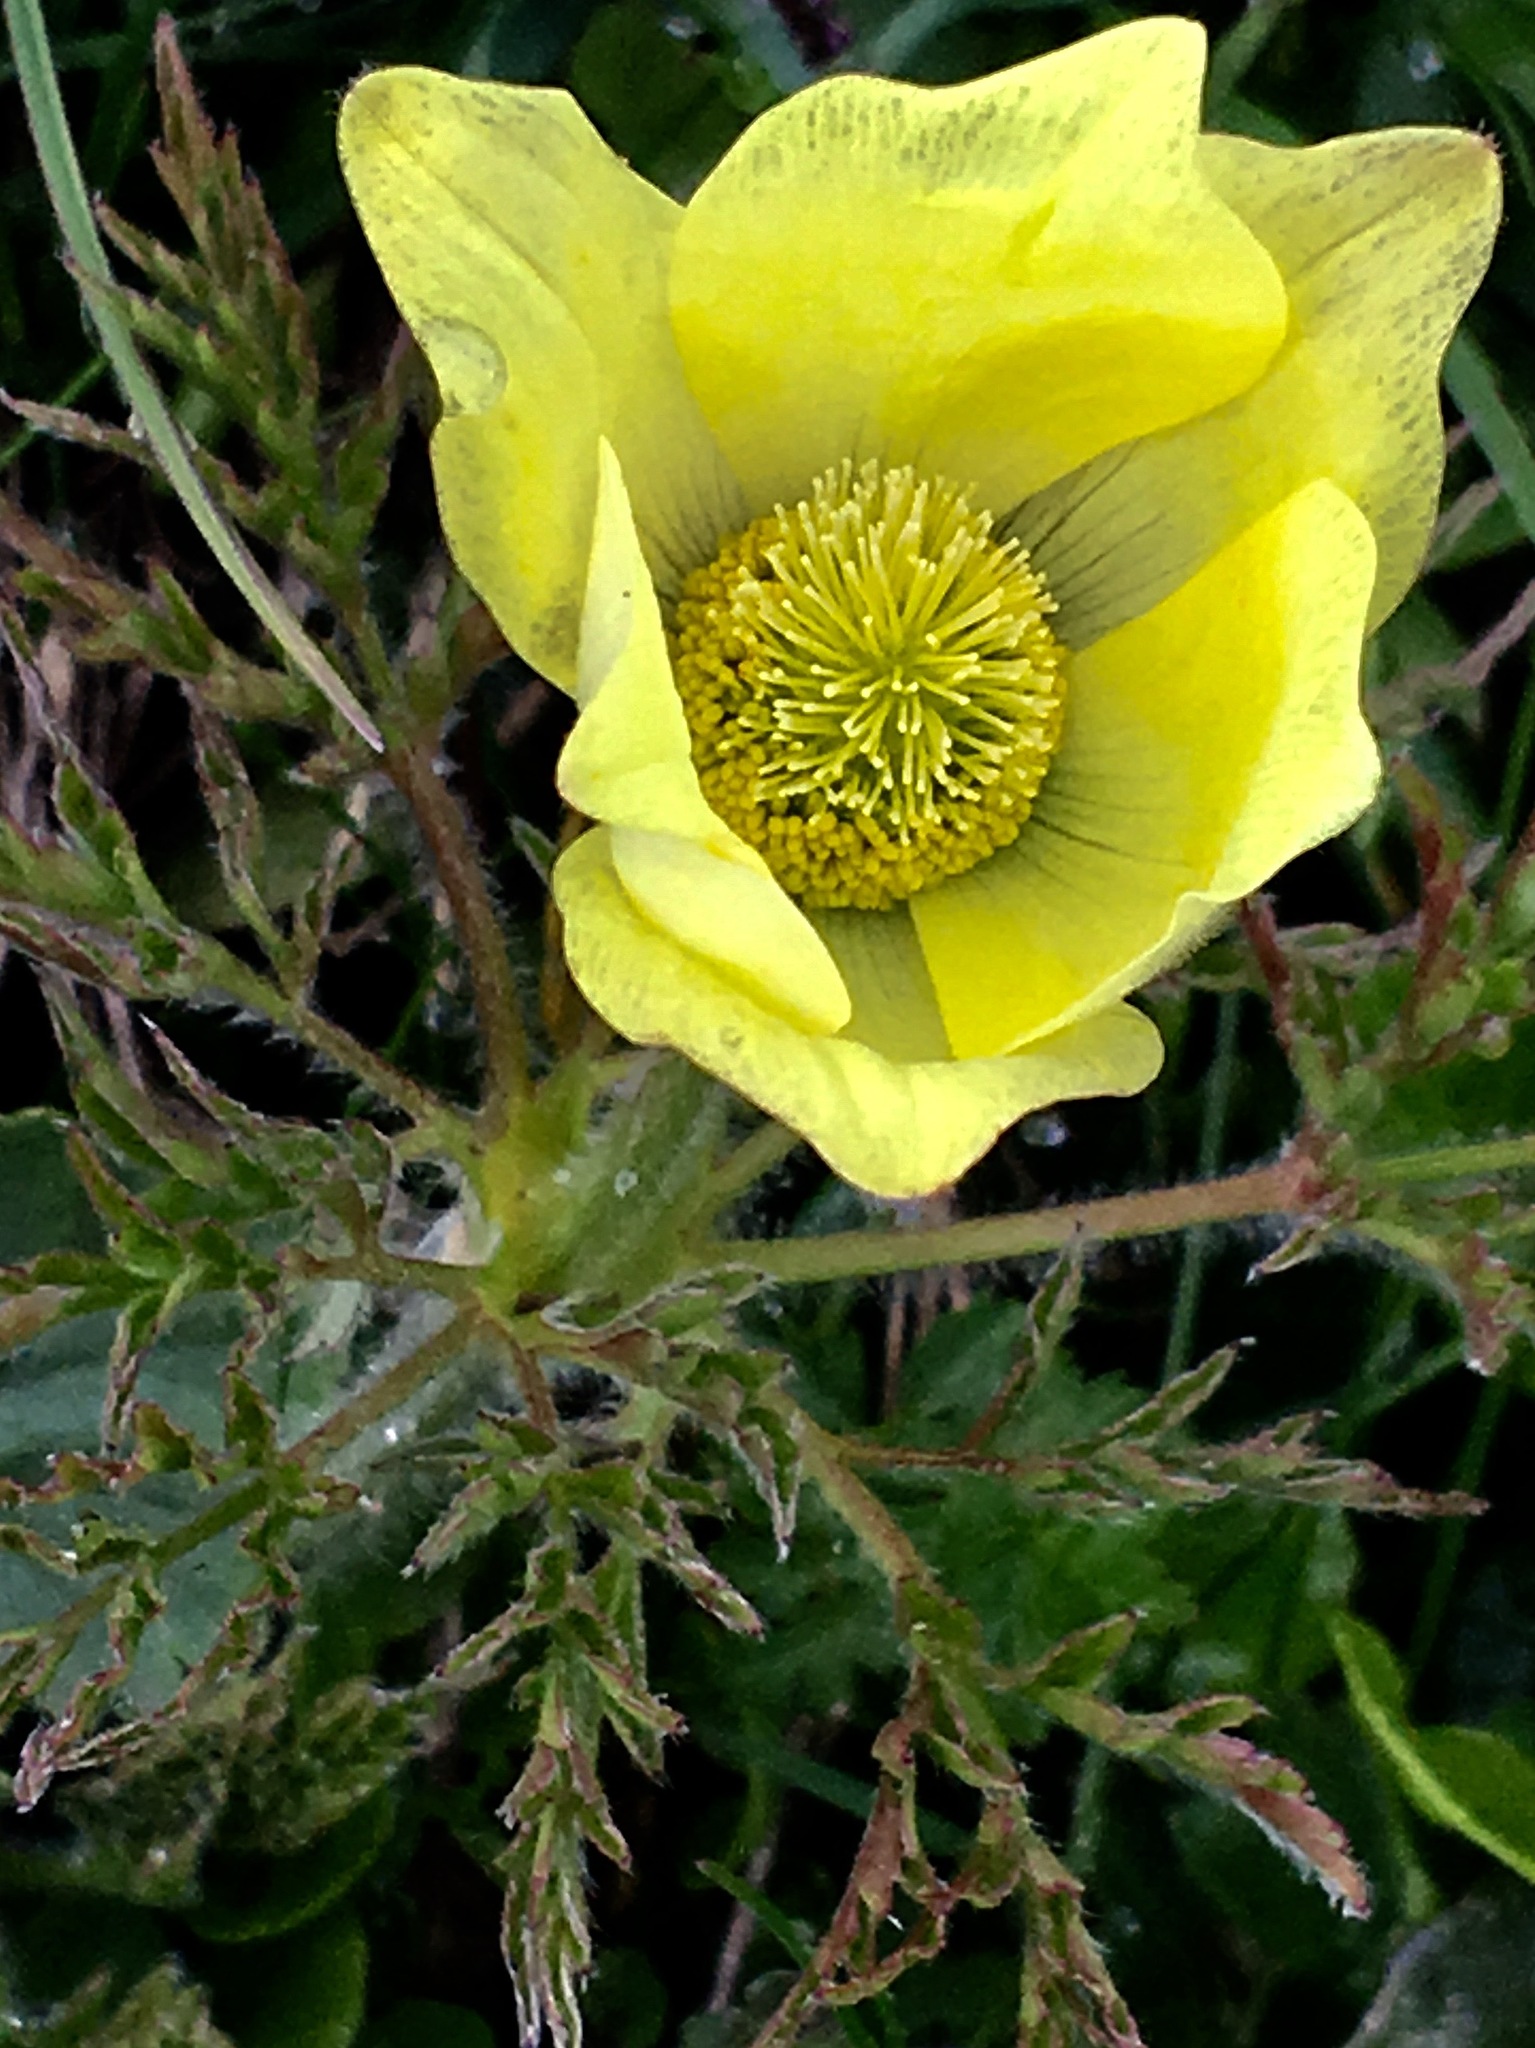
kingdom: Plantae
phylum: Tracheophyta
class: Magnoliopsida
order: Ranunculales
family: Ranunculaceae
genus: Pulsatilla
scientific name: Pulsatilla alpina
